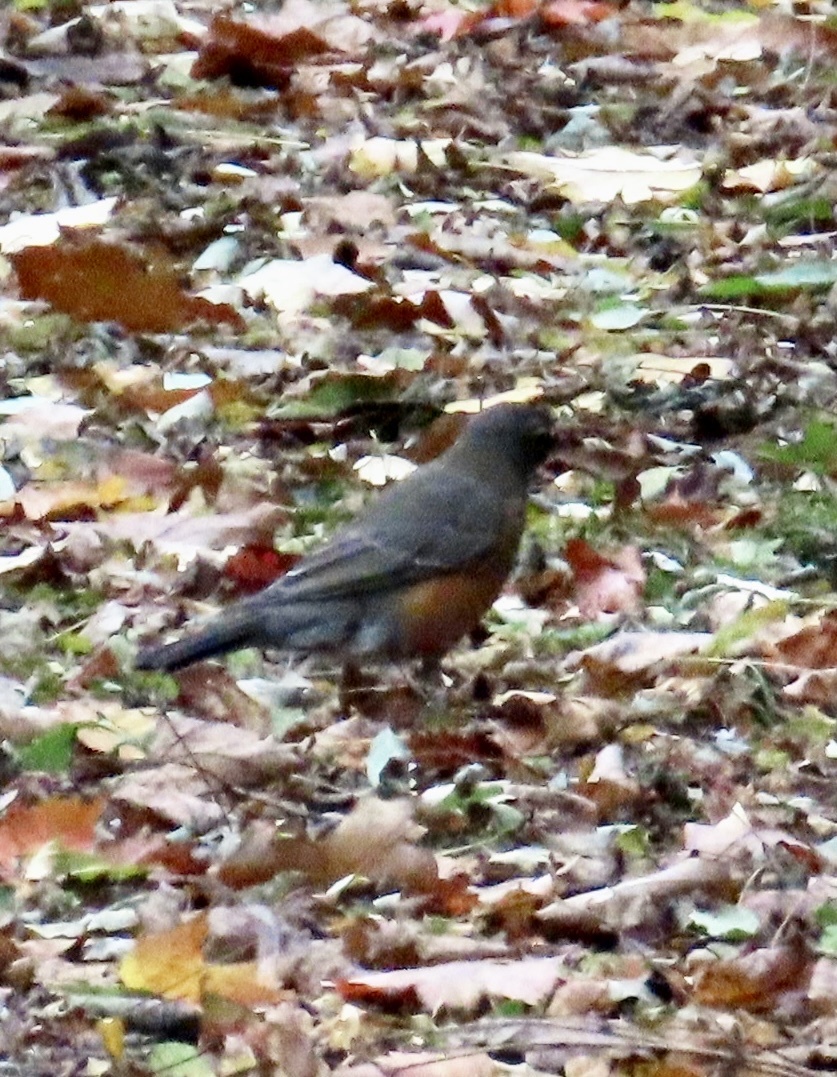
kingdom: Animalia
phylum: Chordata
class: Aves
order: Passeriformes
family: Turdidae
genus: Turdus
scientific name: Turdus migratorius
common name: American robin
